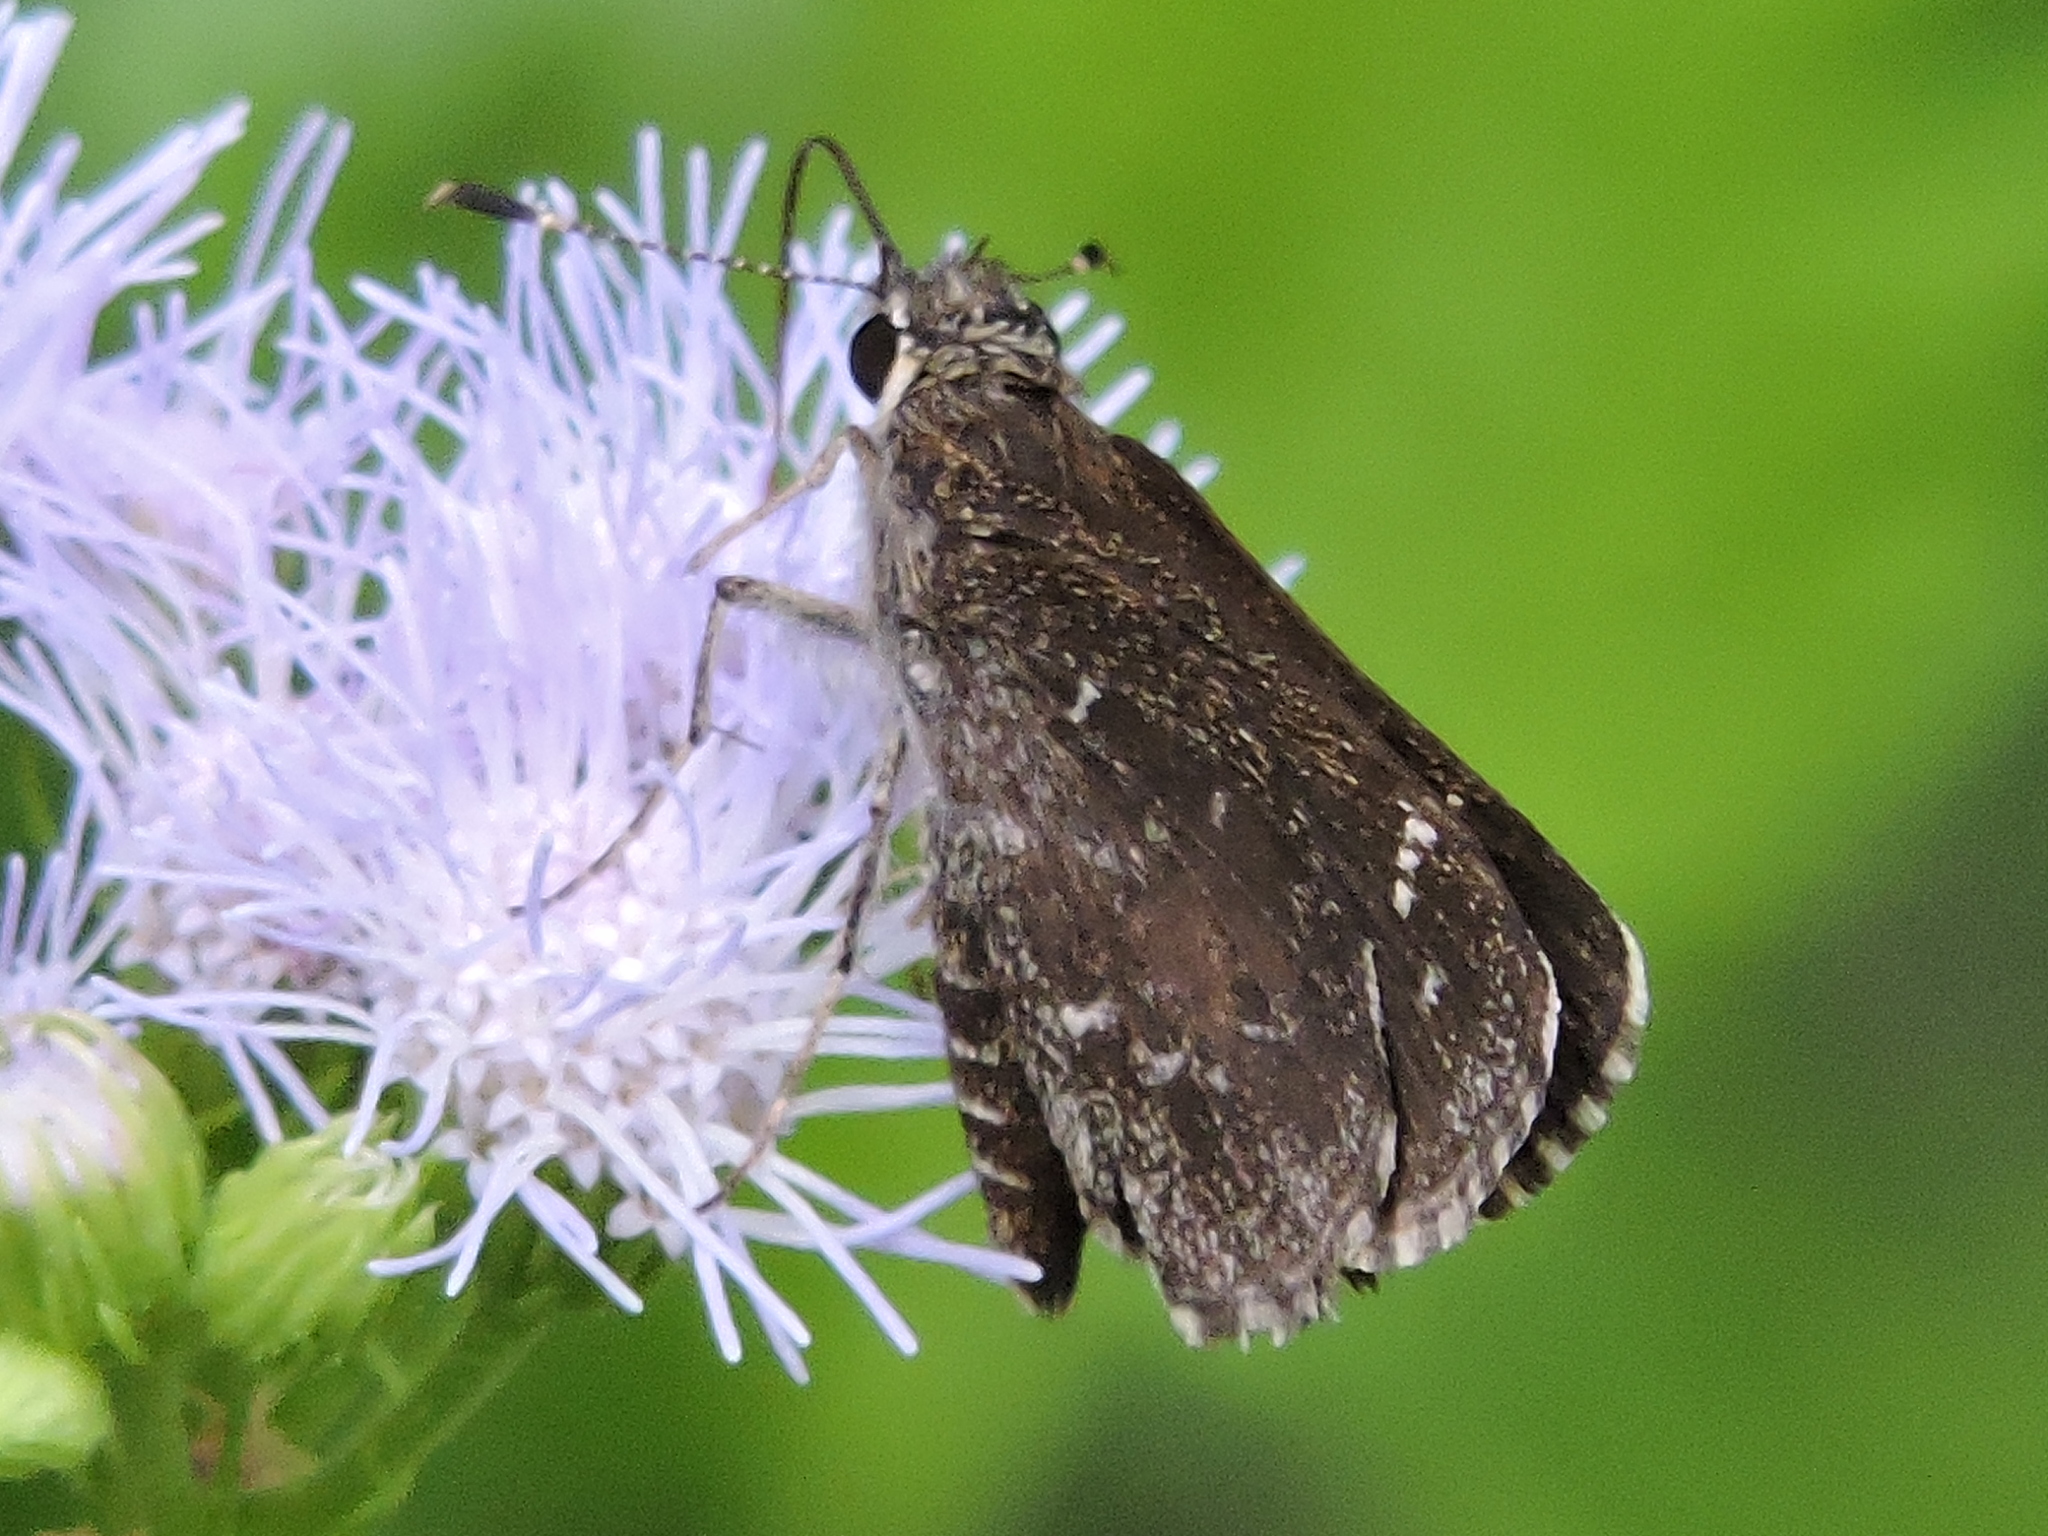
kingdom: Animalia
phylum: Arthropoda
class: Insecta
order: Lepidoptera
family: Hesperiidae
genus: Mastor
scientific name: Mastor celia
